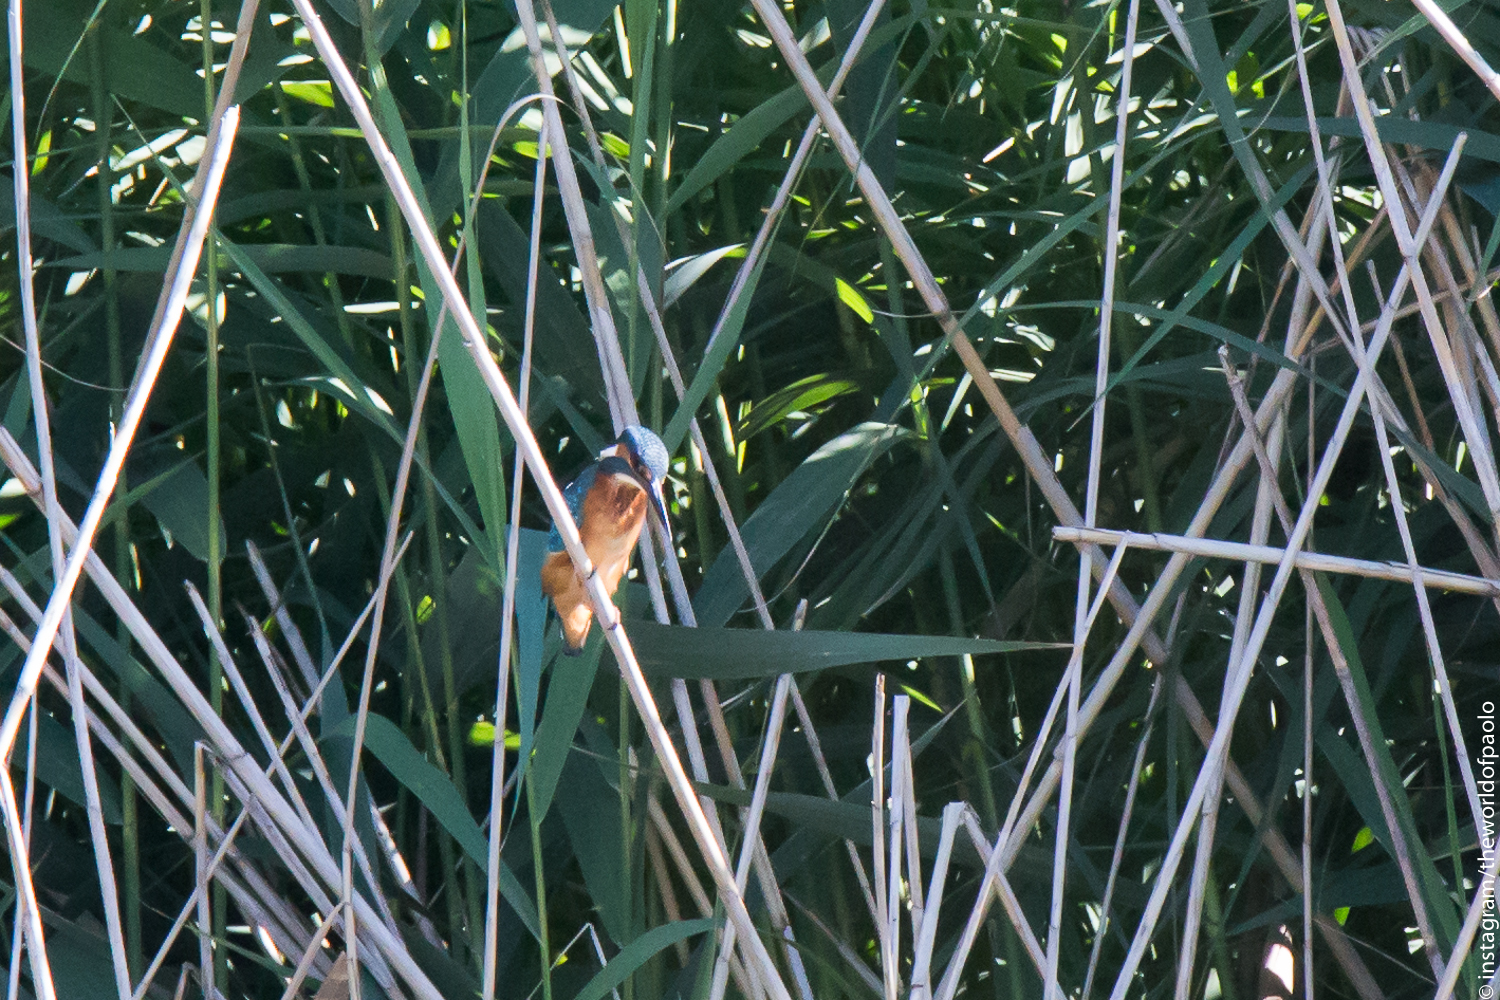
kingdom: Animalia
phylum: Chordata
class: Aves
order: Coraciiformes
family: Alcedinidae
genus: Alcedo
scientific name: Alcedo atthis
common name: Common kingfisher
